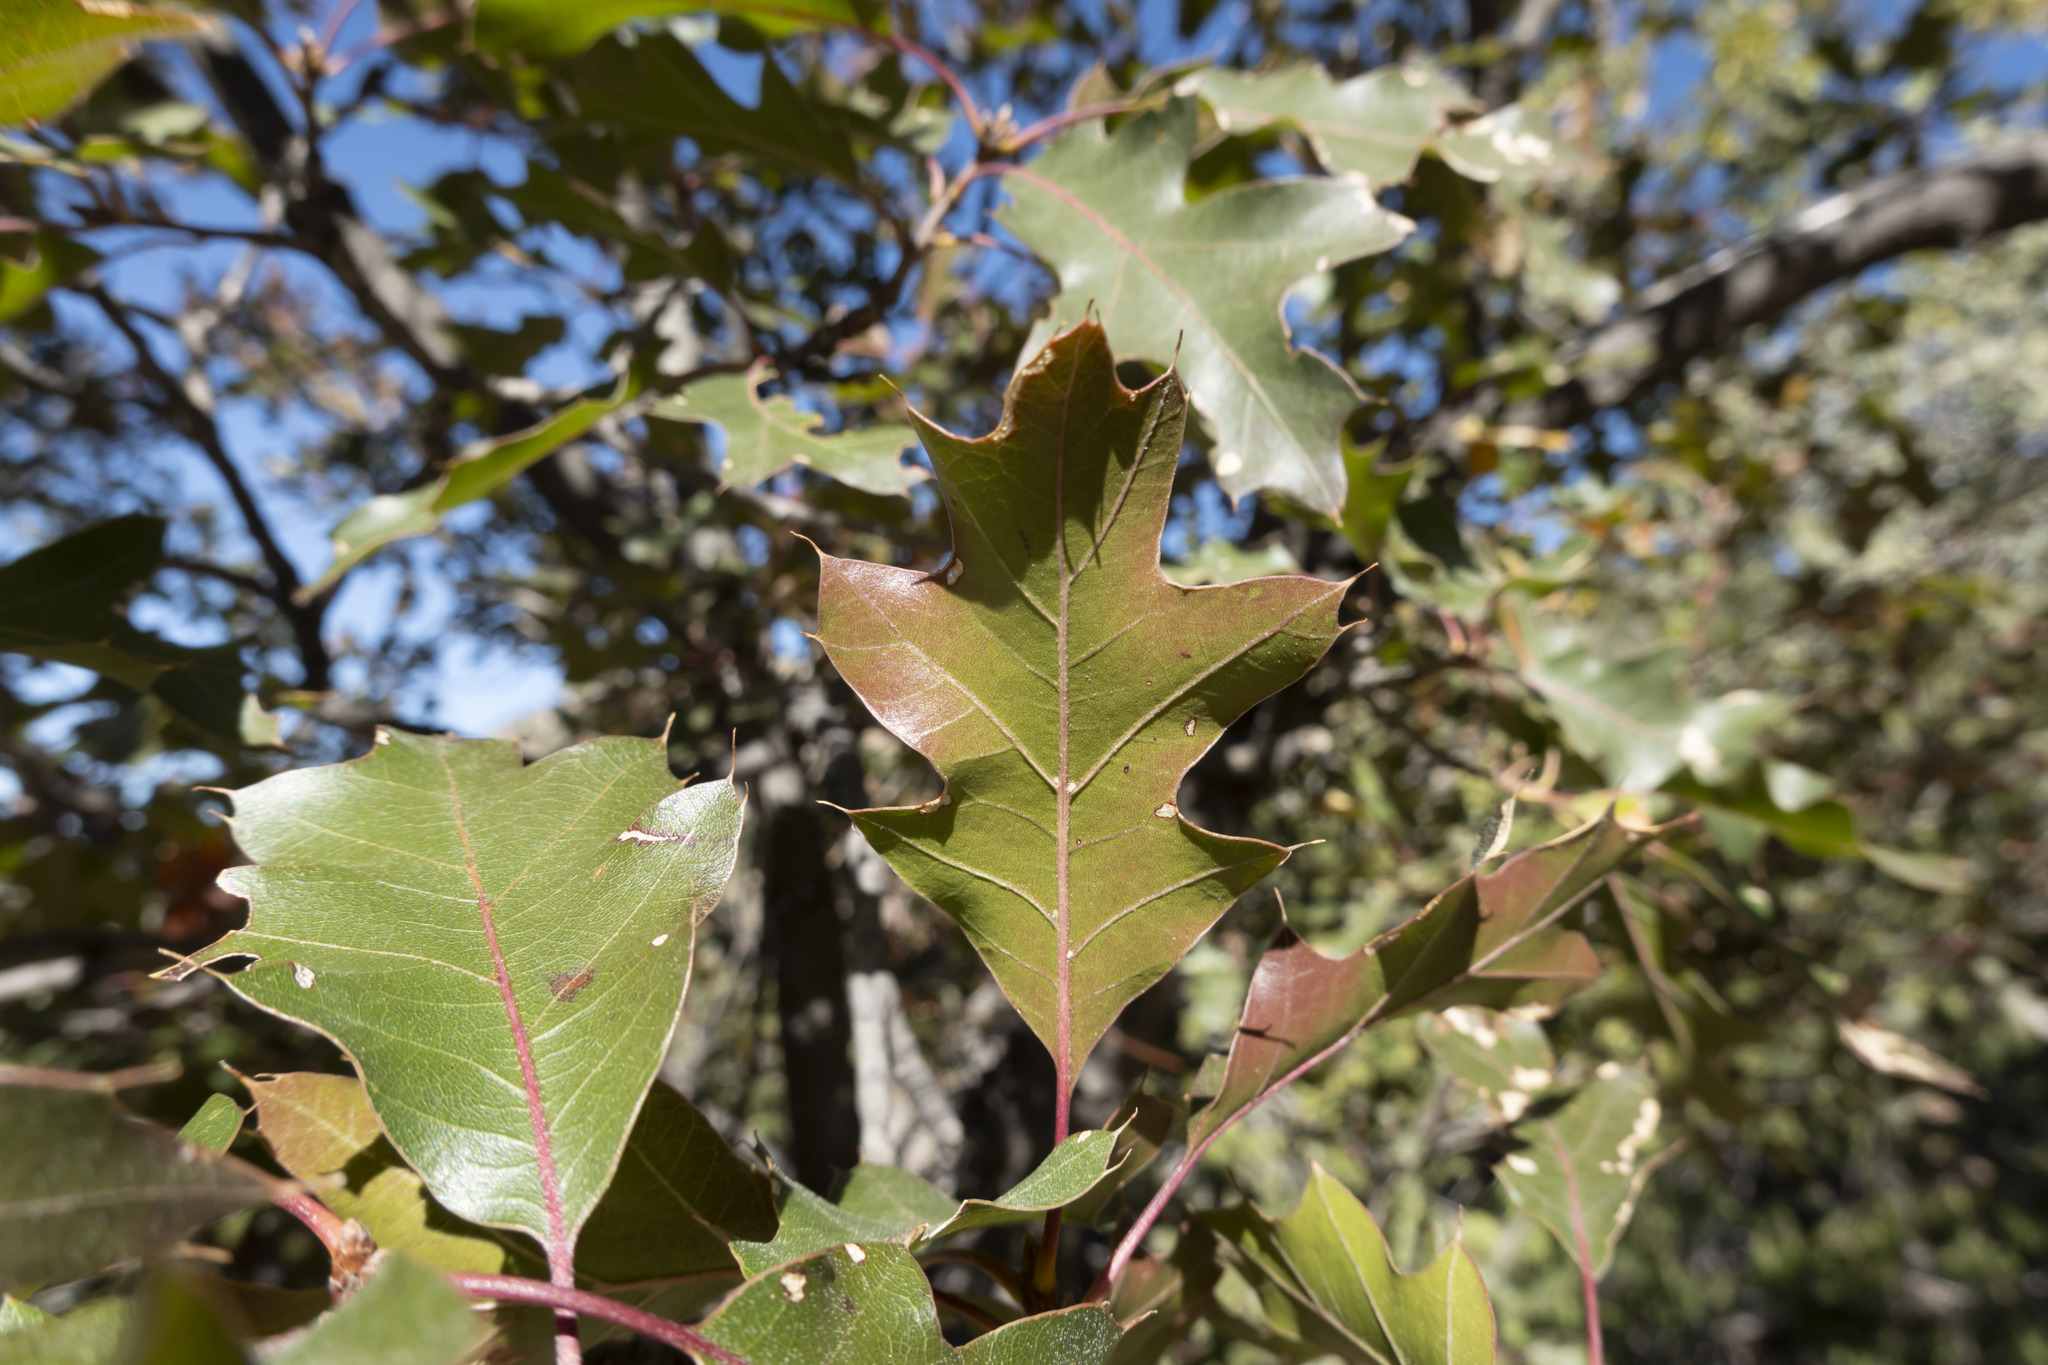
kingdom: Plantae
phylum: Tracheophyta
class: Magnoliopsida
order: Fagales
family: Fagaceae
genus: Quercus
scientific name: Quercus gravesii
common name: Chisos red oak
